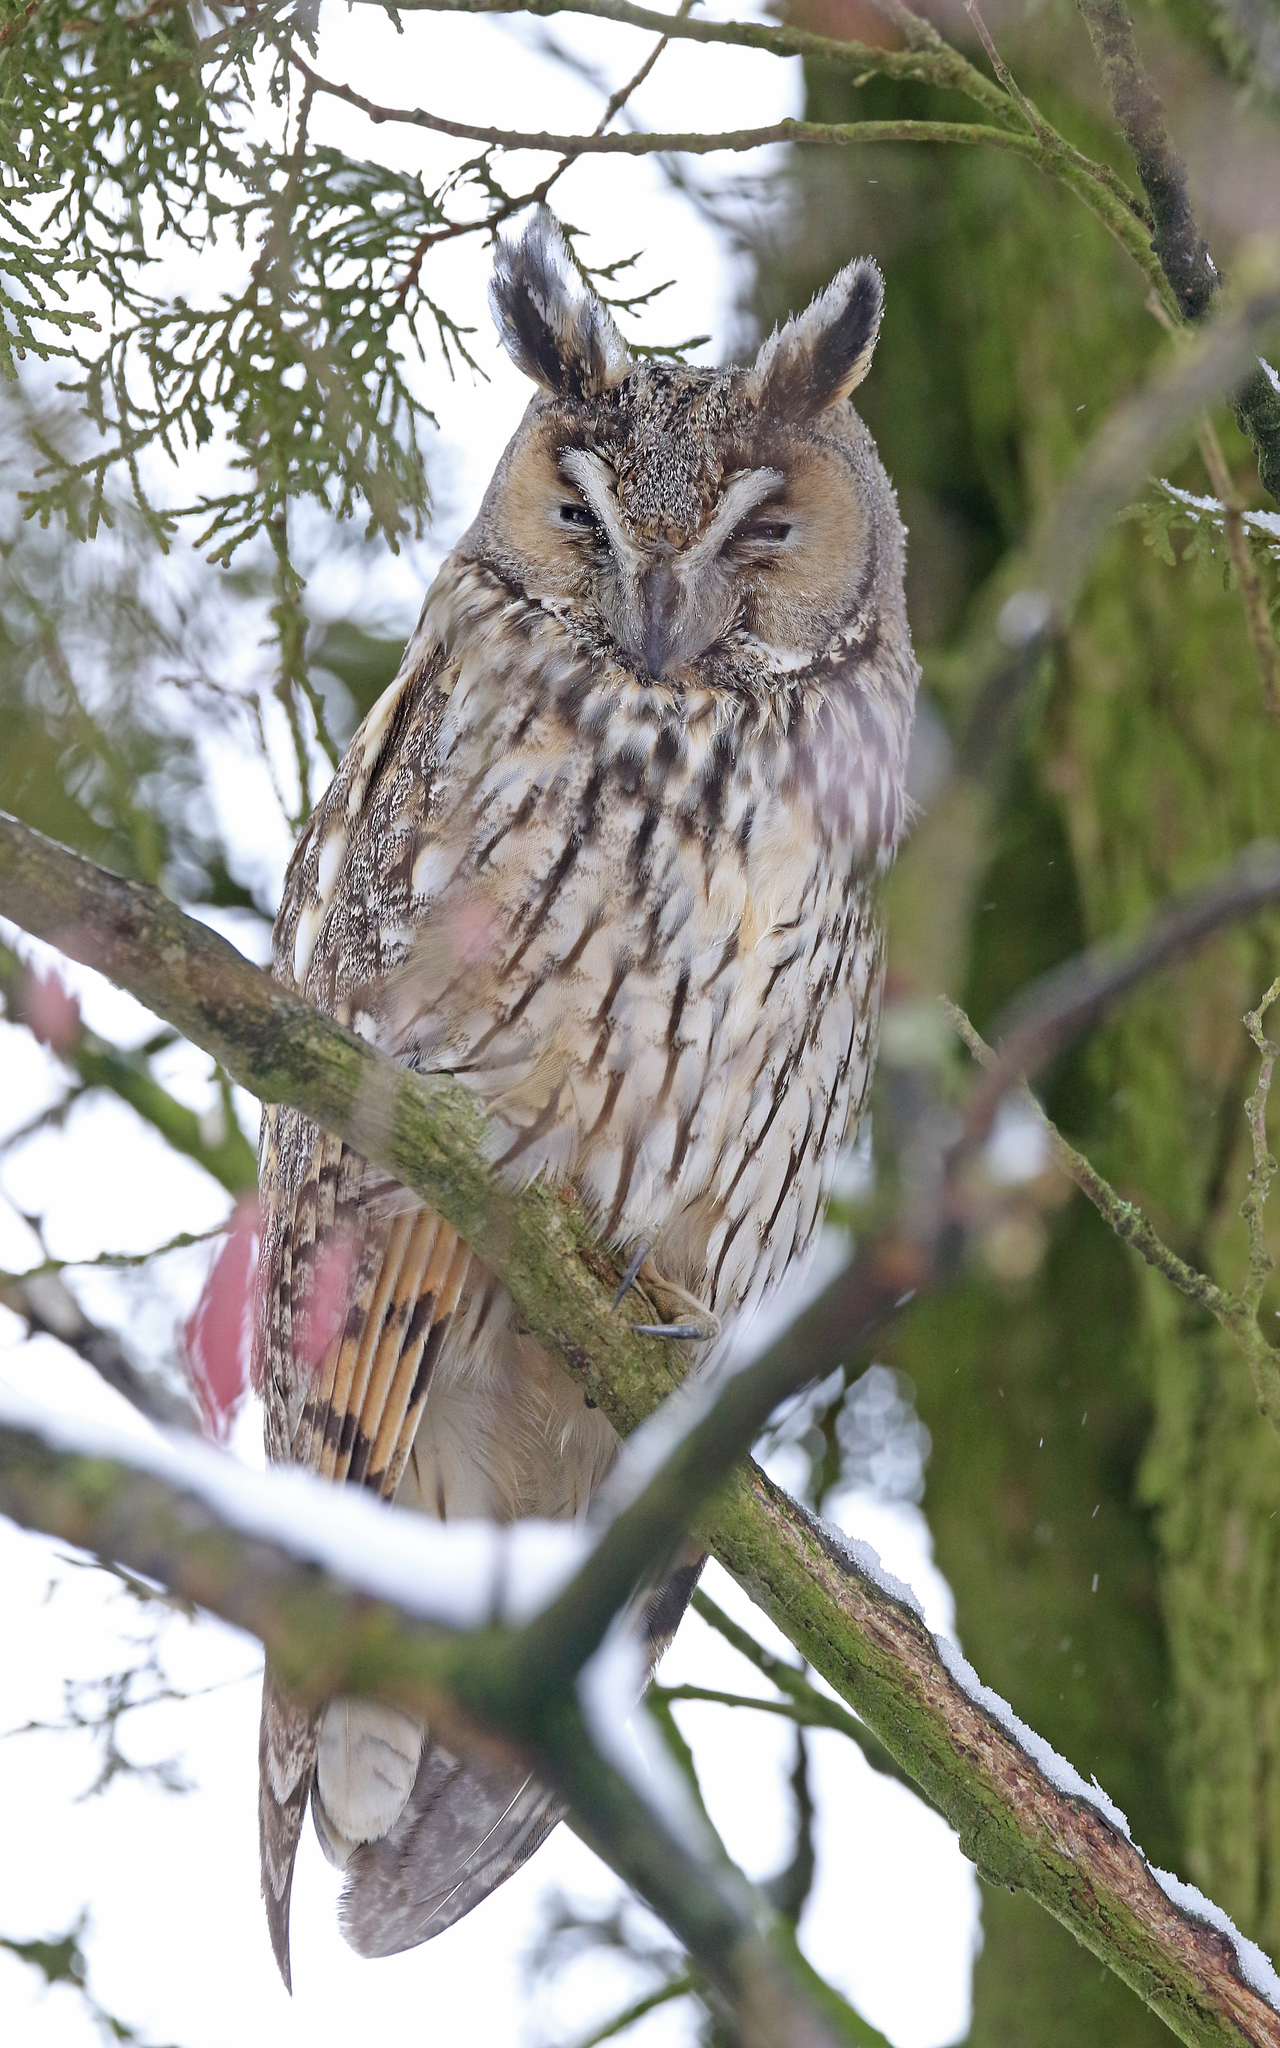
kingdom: Animalia
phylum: Chordata
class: Aves
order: Strigiformes
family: Strigidae
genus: Asio
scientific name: Asio otus
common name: Long-eared owl
